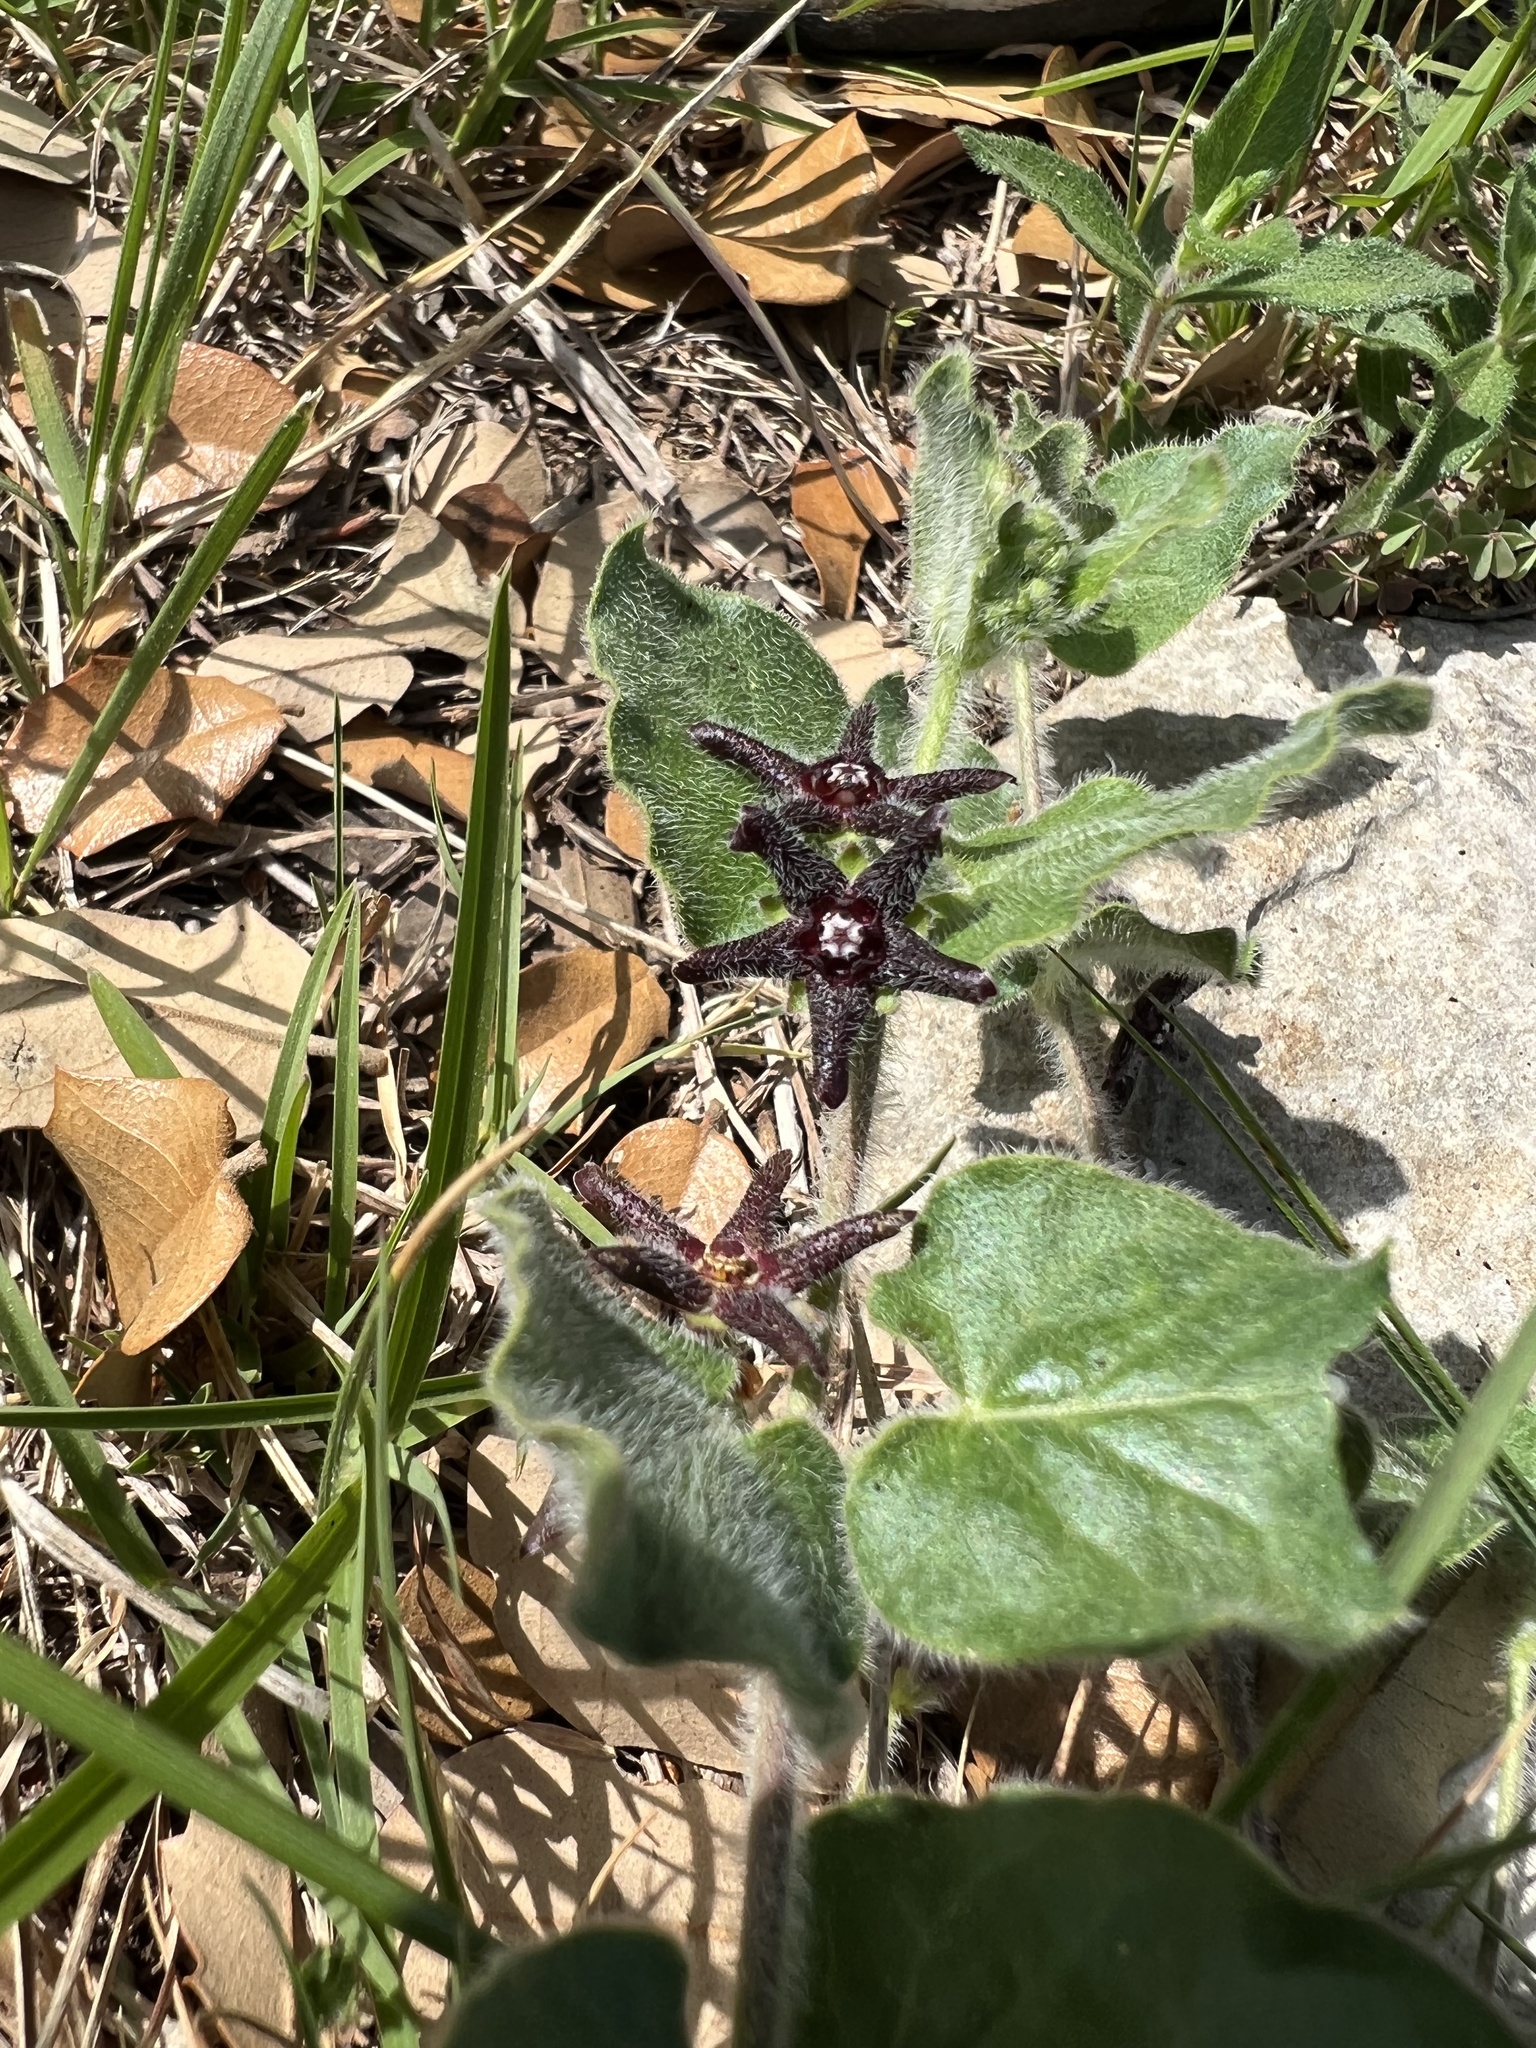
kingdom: Plantae
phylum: Tracheophyta
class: Magnoliopsida
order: Gentianales
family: Apocynaceae
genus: Chthamalia
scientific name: Chthamalia biflora
